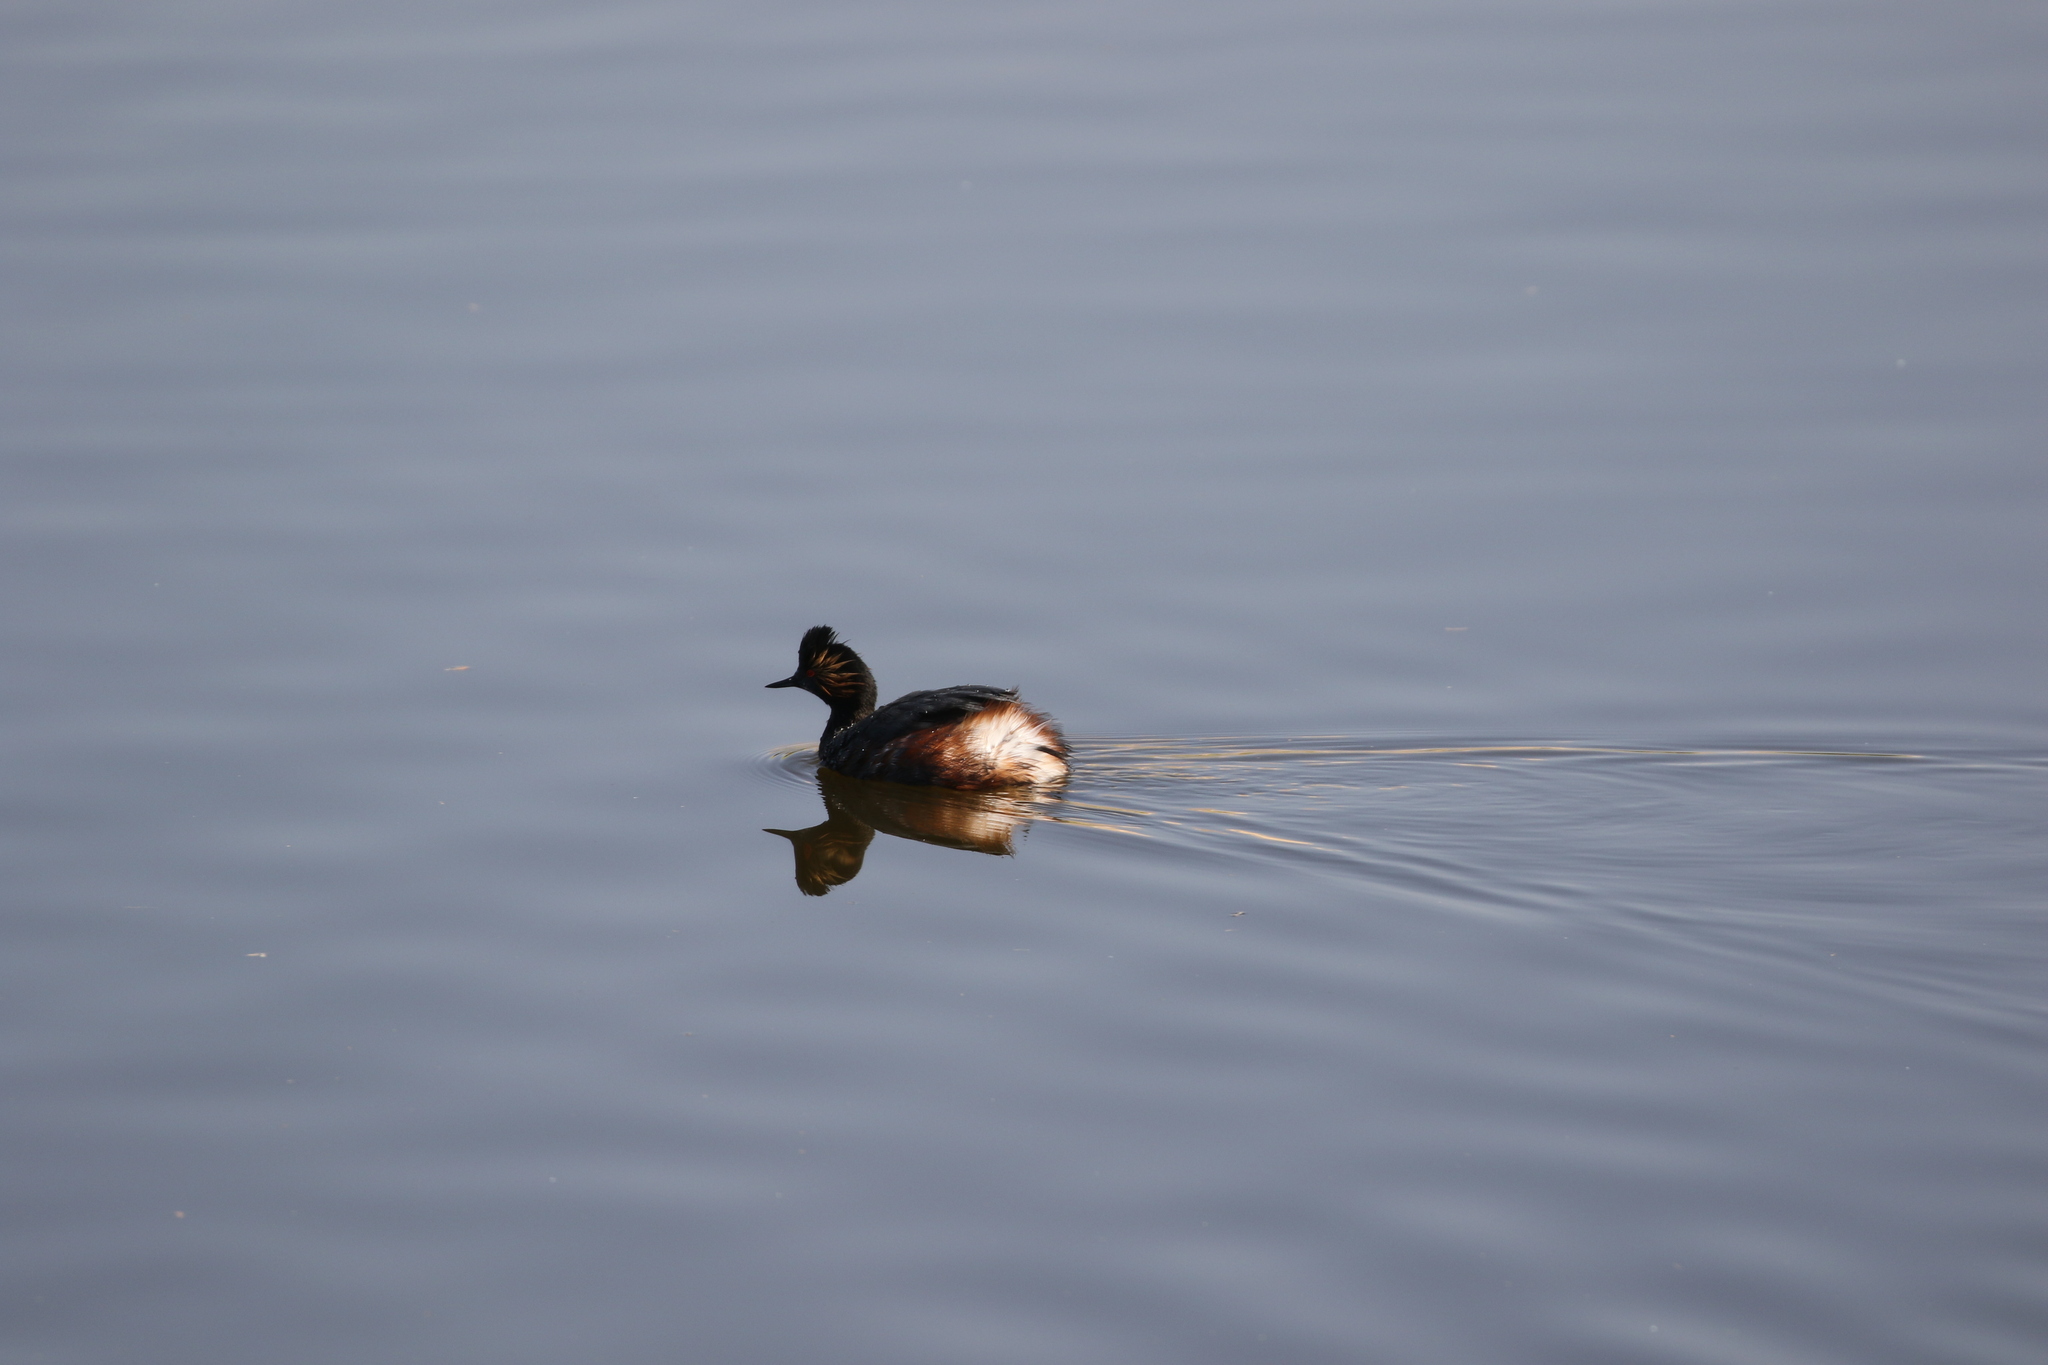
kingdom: Animalia
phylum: Chordata
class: Aves
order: Podicipediformes
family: Podicipedidae
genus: Podiceps
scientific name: Podiceps nigricollis
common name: Black-necked grebe
